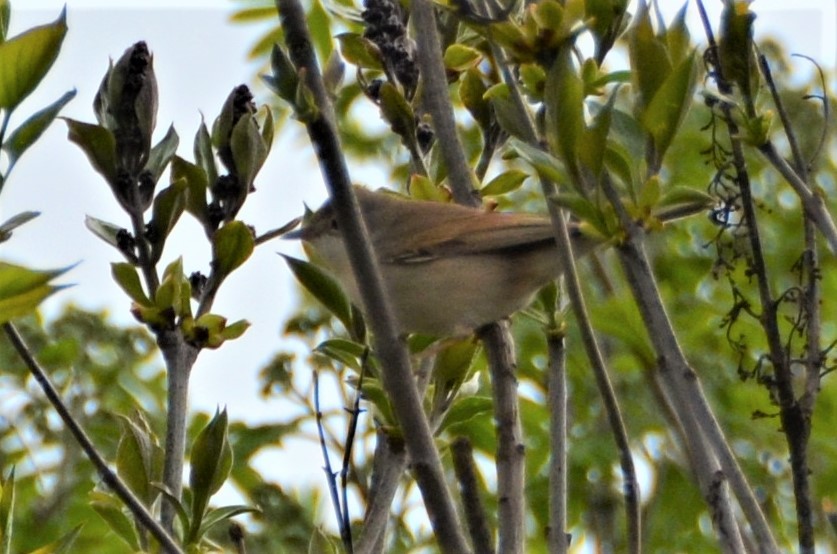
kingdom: Animalia
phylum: Chordata
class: Aves
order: Passeriformes
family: Sylviidae
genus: Sylvia
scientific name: Sylvia communis
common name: Common whitethroat
